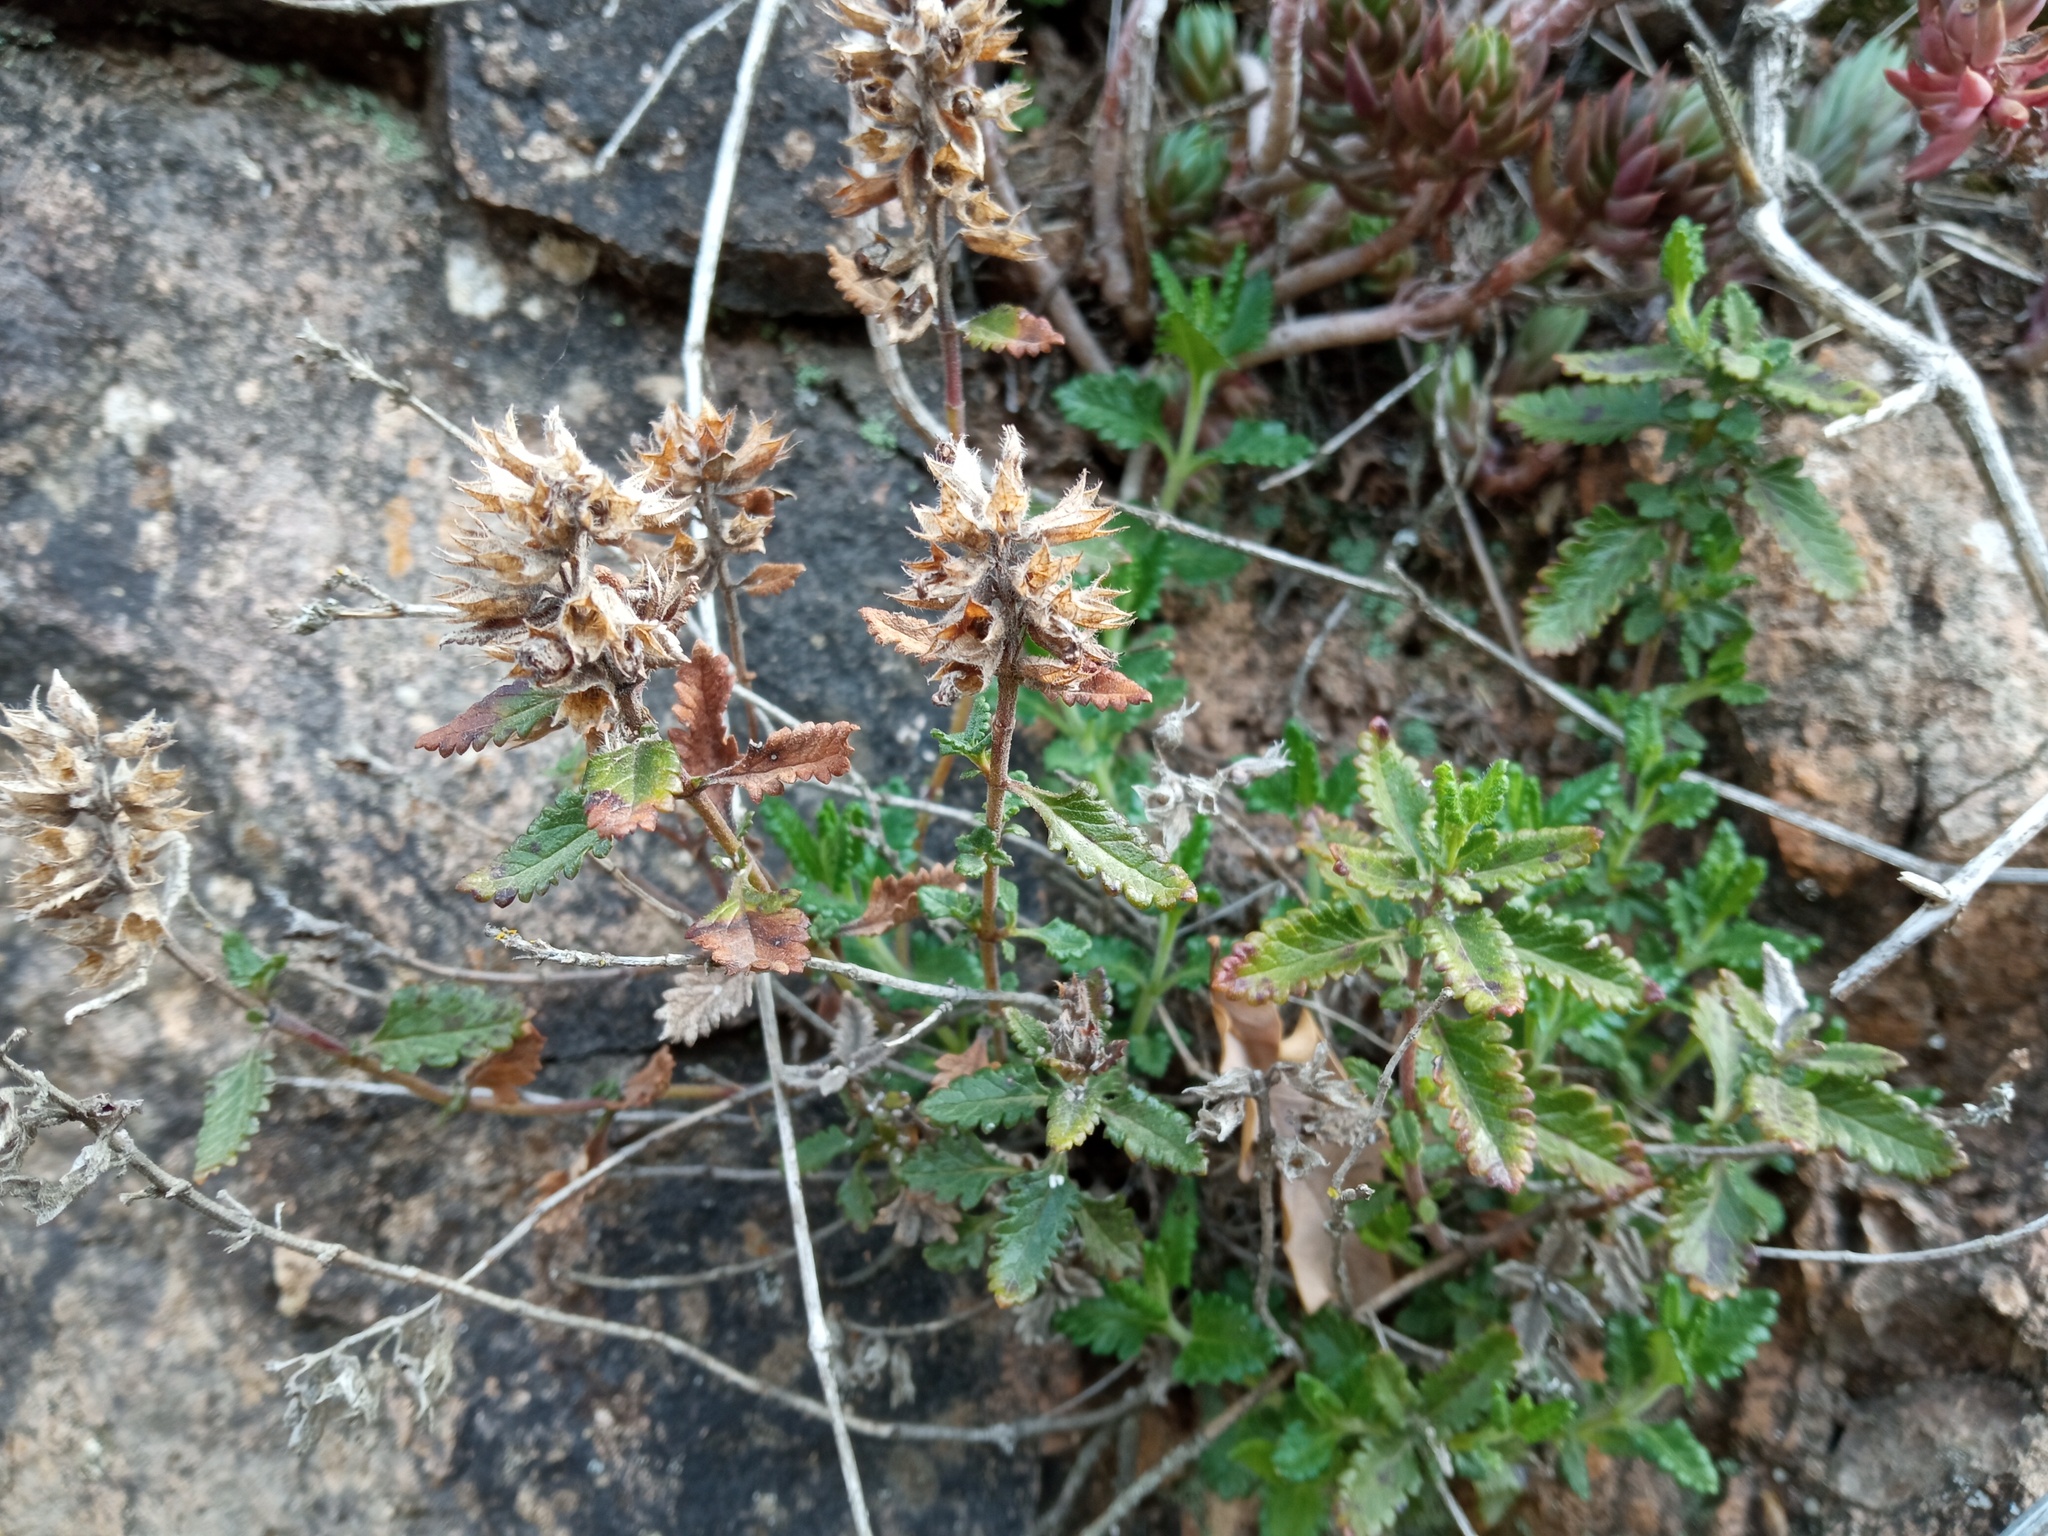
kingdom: Plantae
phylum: Tracheophyta
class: Magnoliopsida
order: Lamiales
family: Lamiaceae
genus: Teucrium
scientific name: Teucrium chamaedrys
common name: Wall germander
